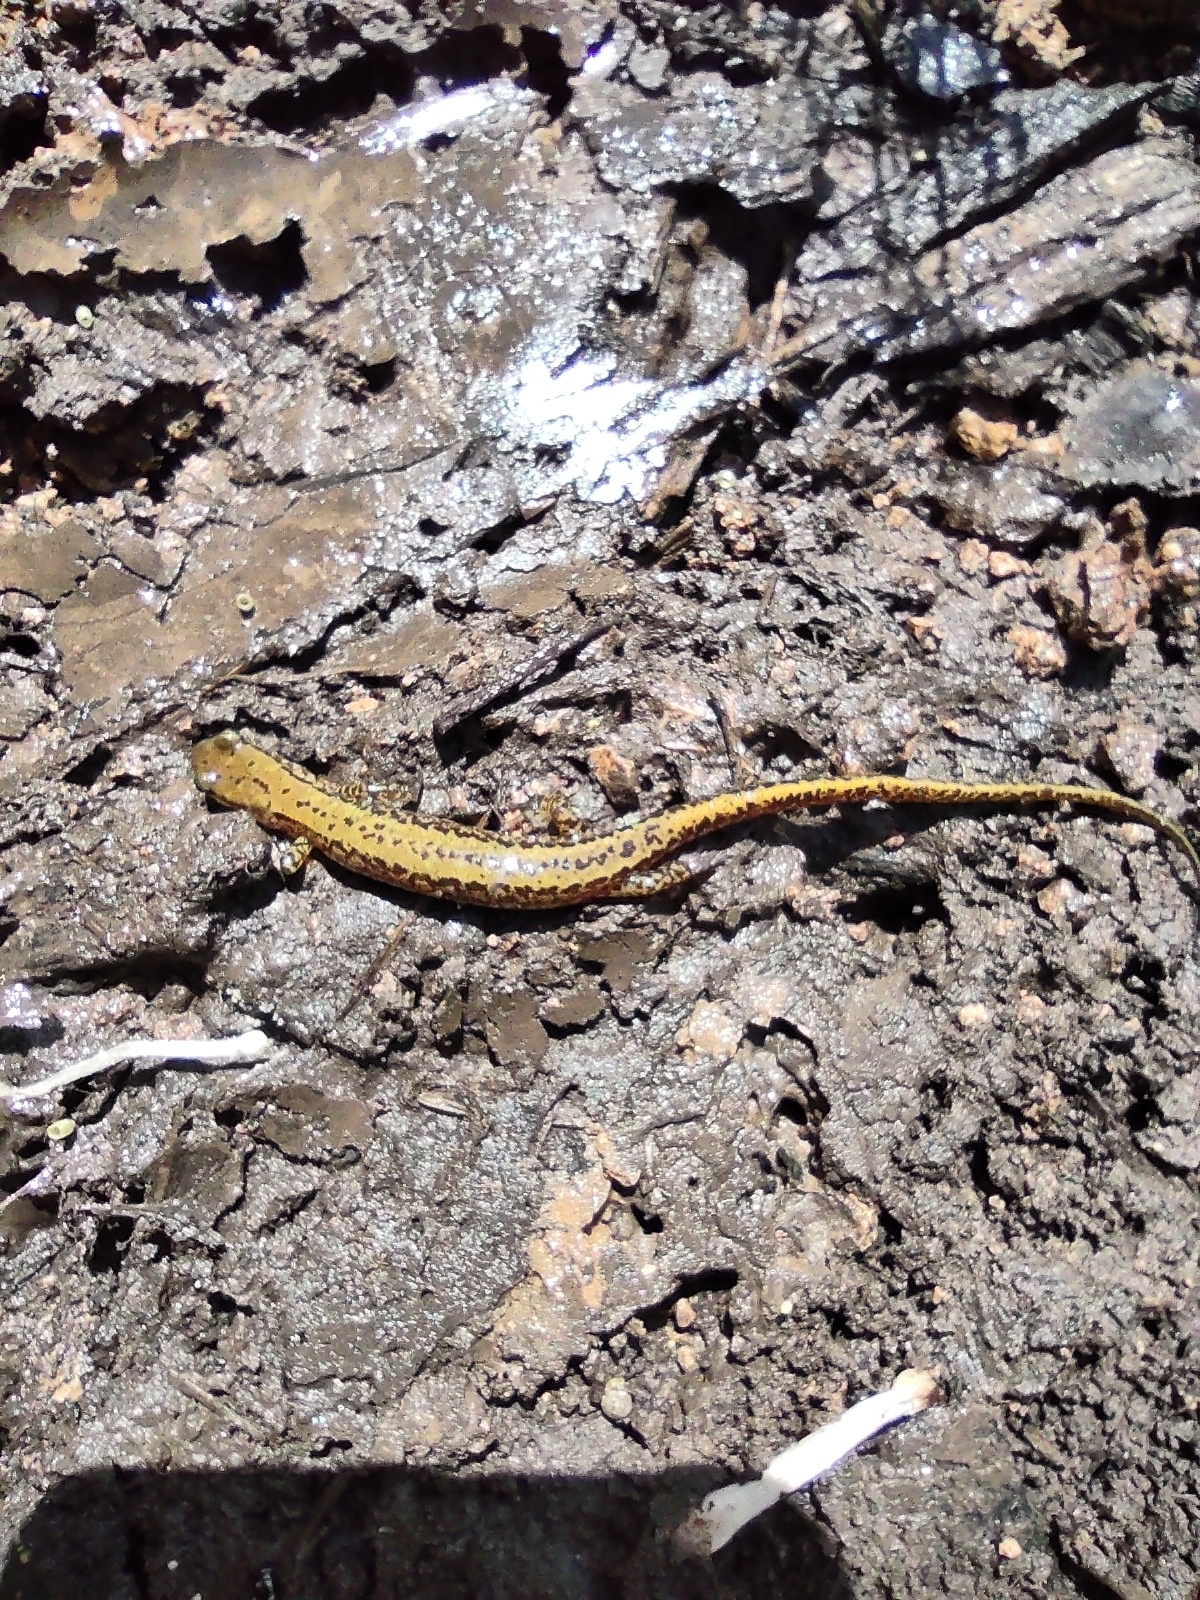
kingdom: Animalia
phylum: Chordata
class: Amphibia
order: Caudata
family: Plethodontidae
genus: Eurycea
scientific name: Eurycea longicauda
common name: Long-tailed salamander
